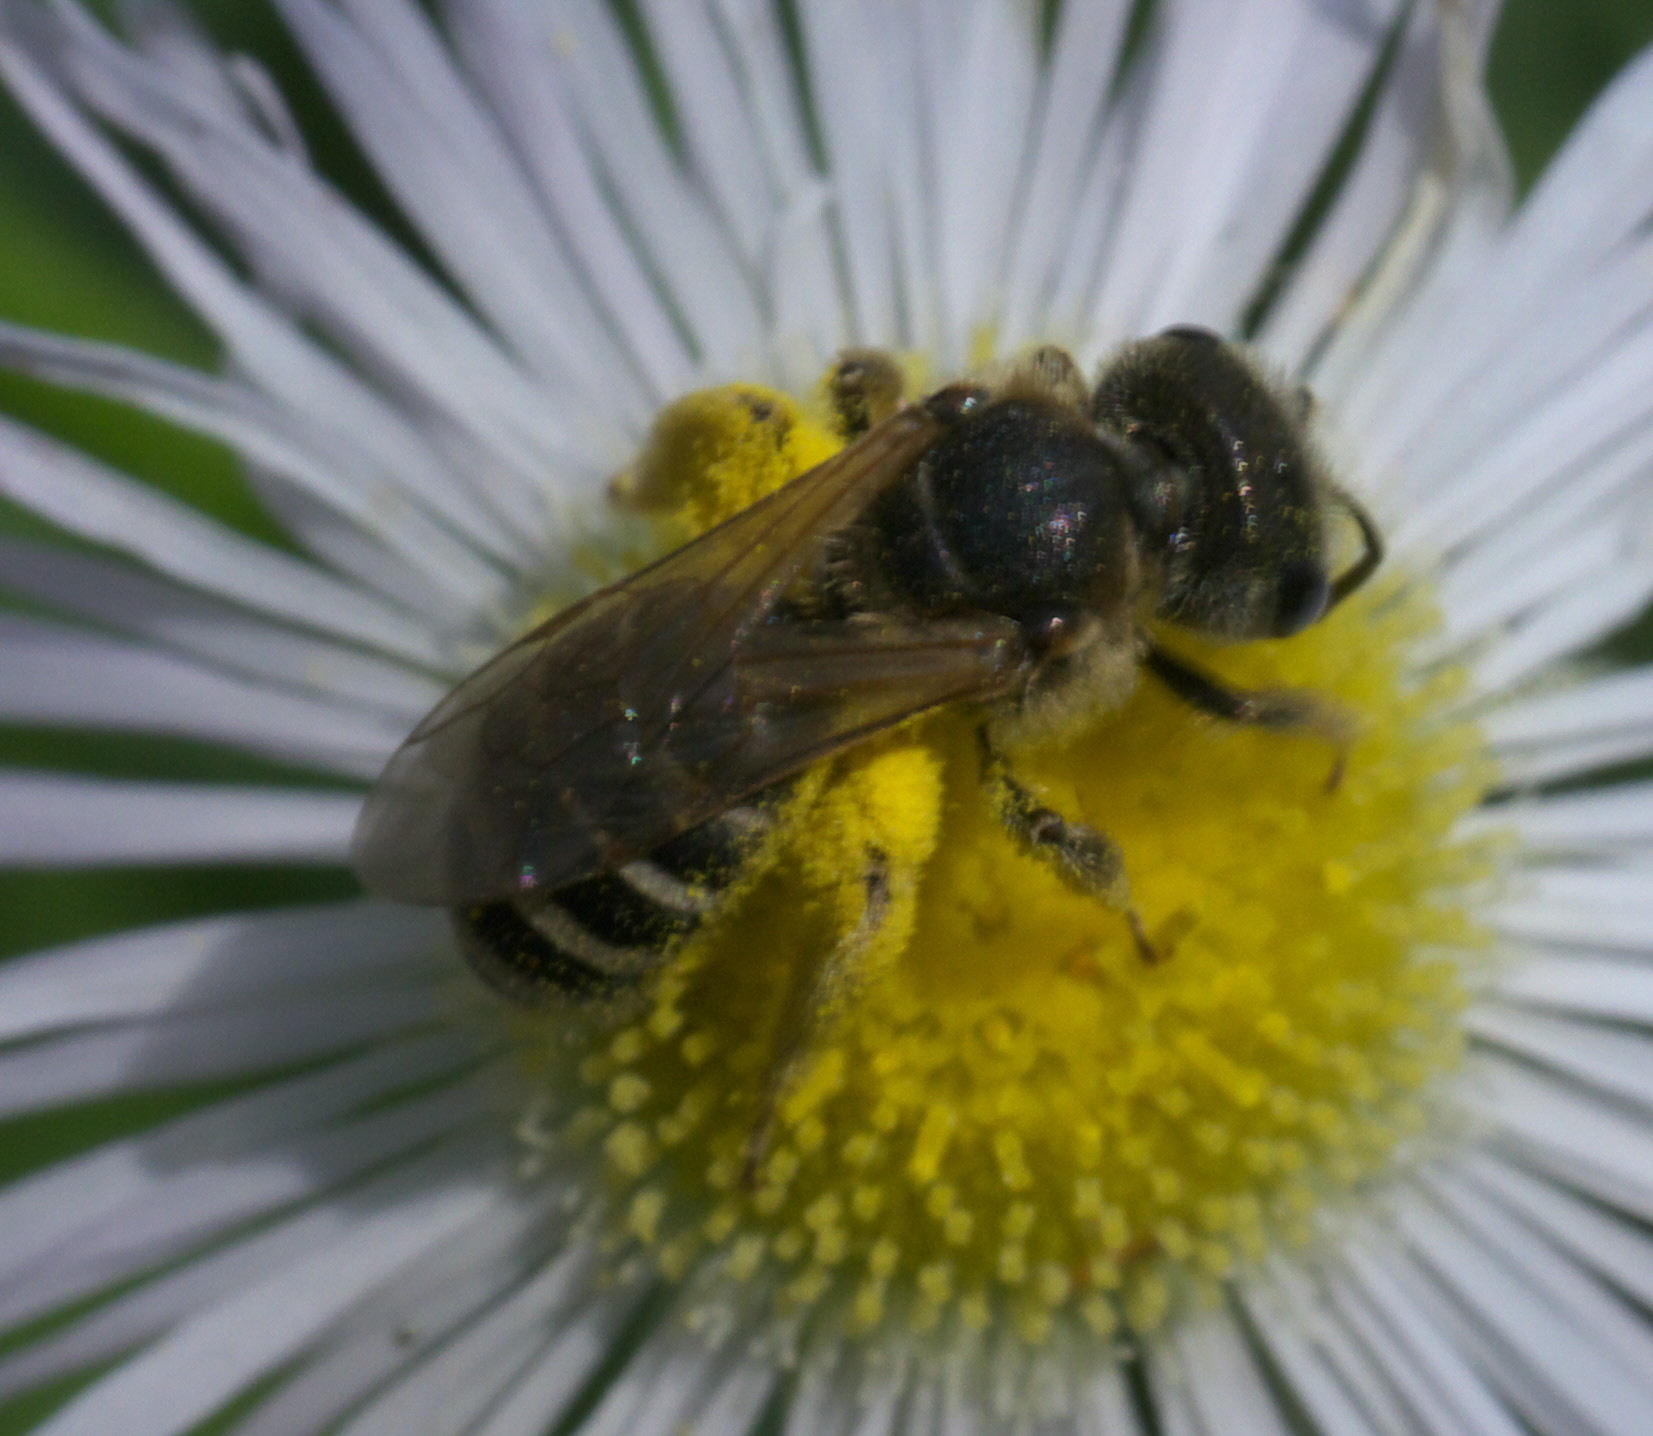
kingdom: Animalia
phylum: Arthropoda
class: Insecta
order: Hymenoptera
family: Halictidae
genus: Halictus
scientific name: Halictus ligatus
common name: Ligated furrow bee
